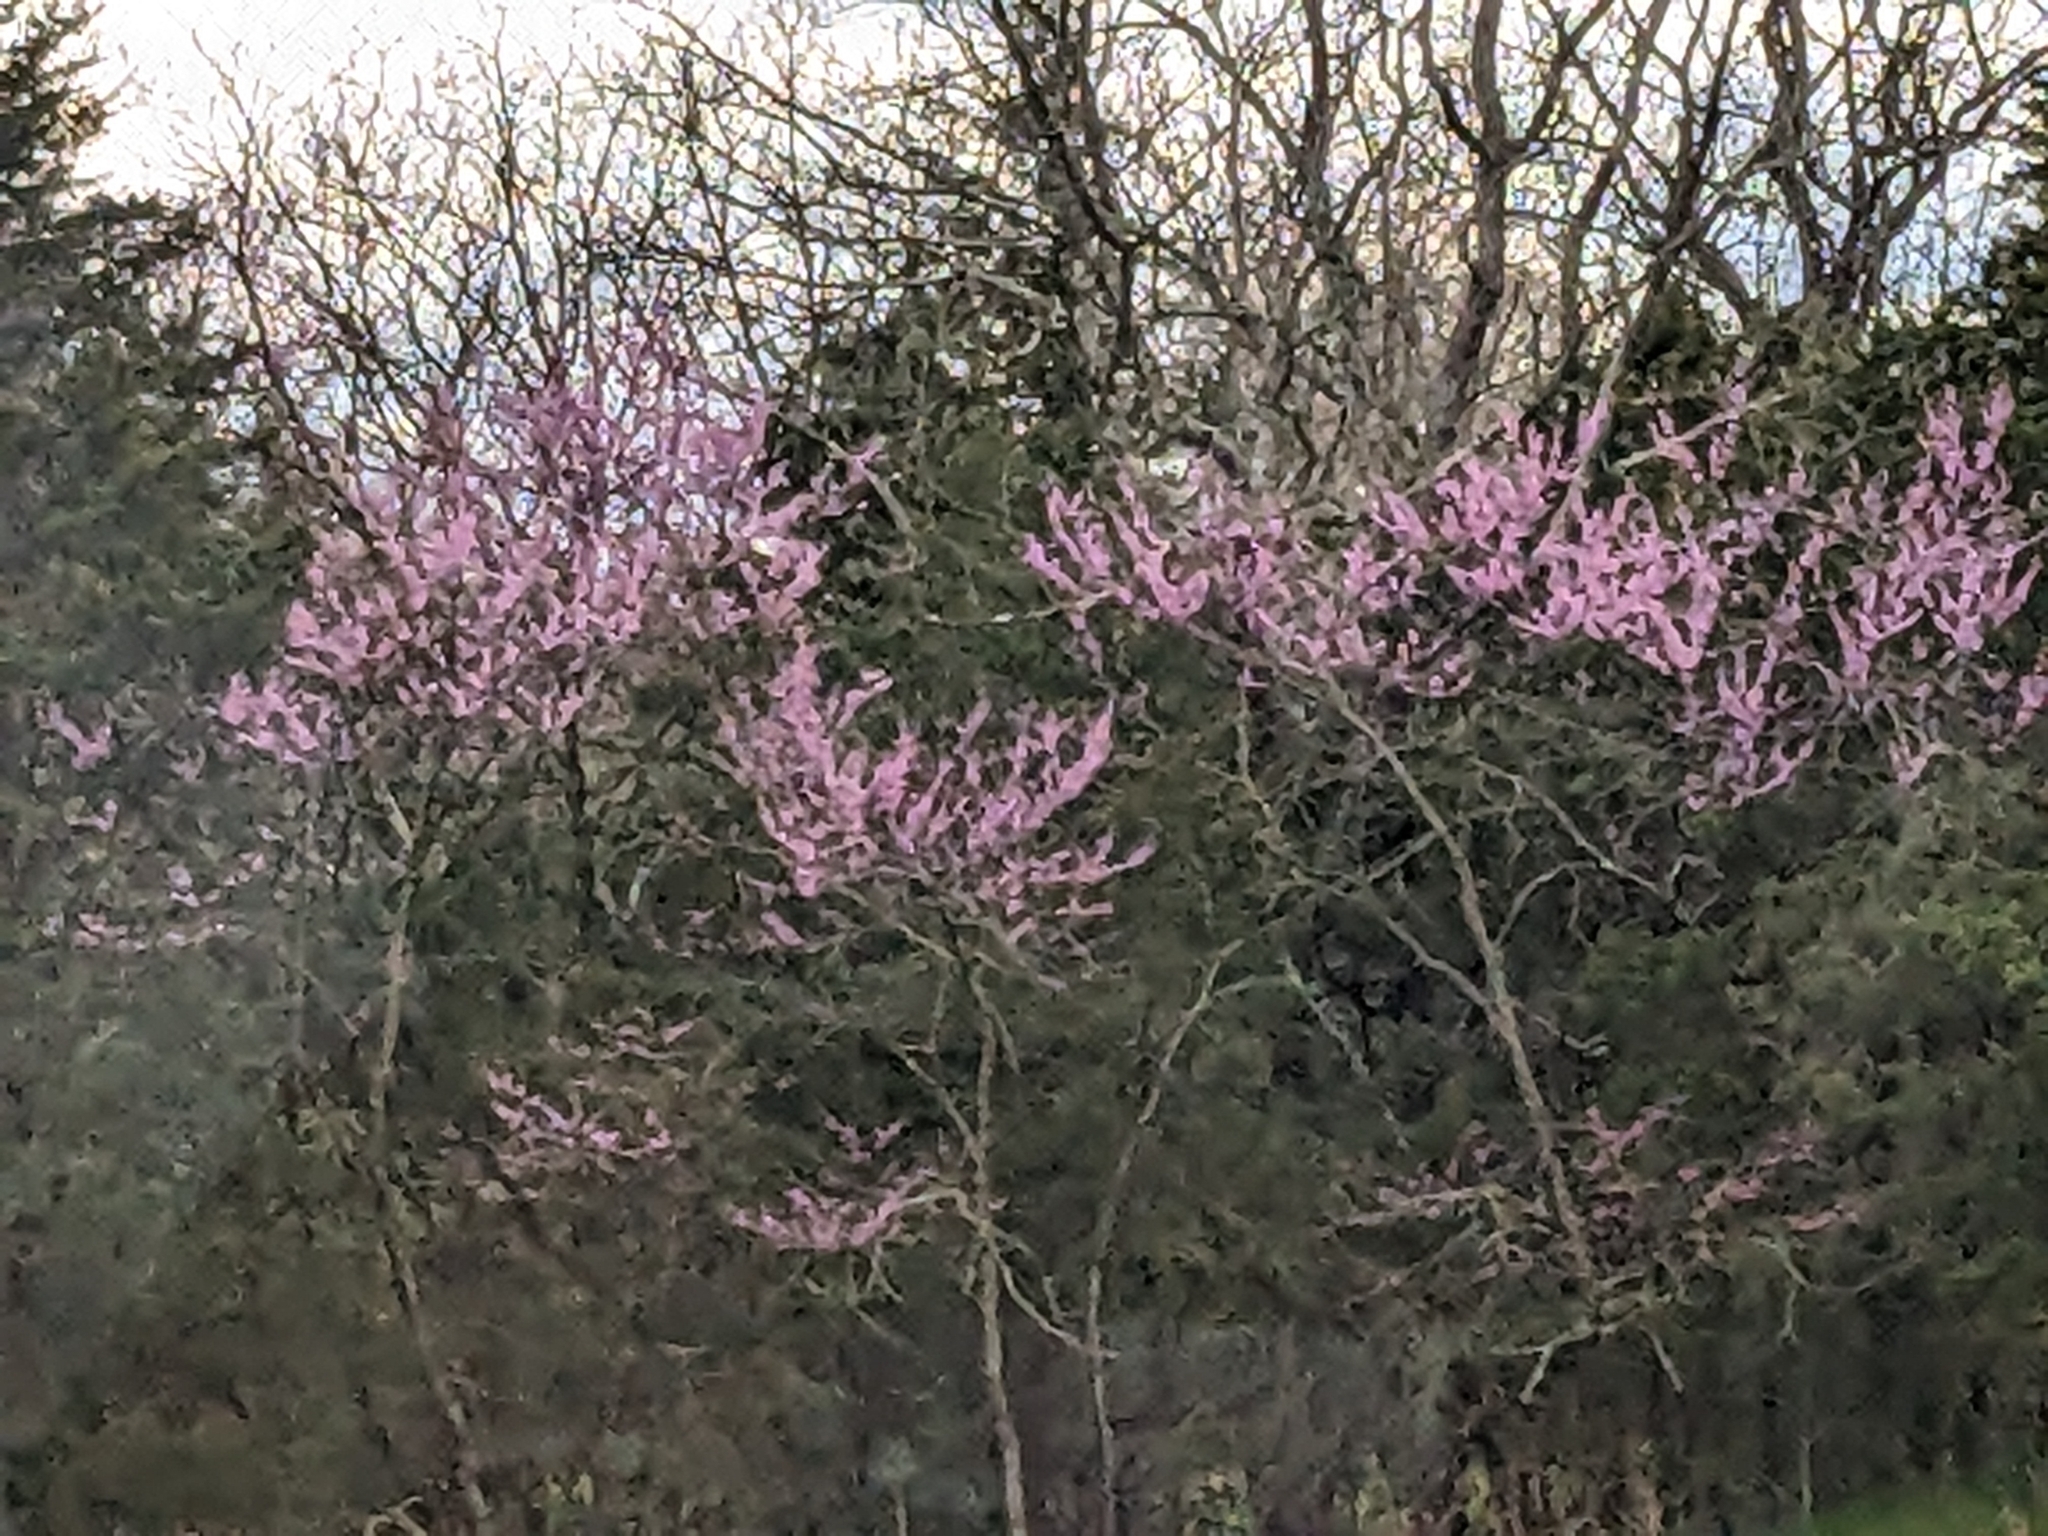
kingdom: Plantae
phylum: Tracheophyta
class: Magnoliopsida
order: Fabales
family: Fabaceae
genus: Cercis
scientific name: Cercis canadensis
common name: Eastern redbud
